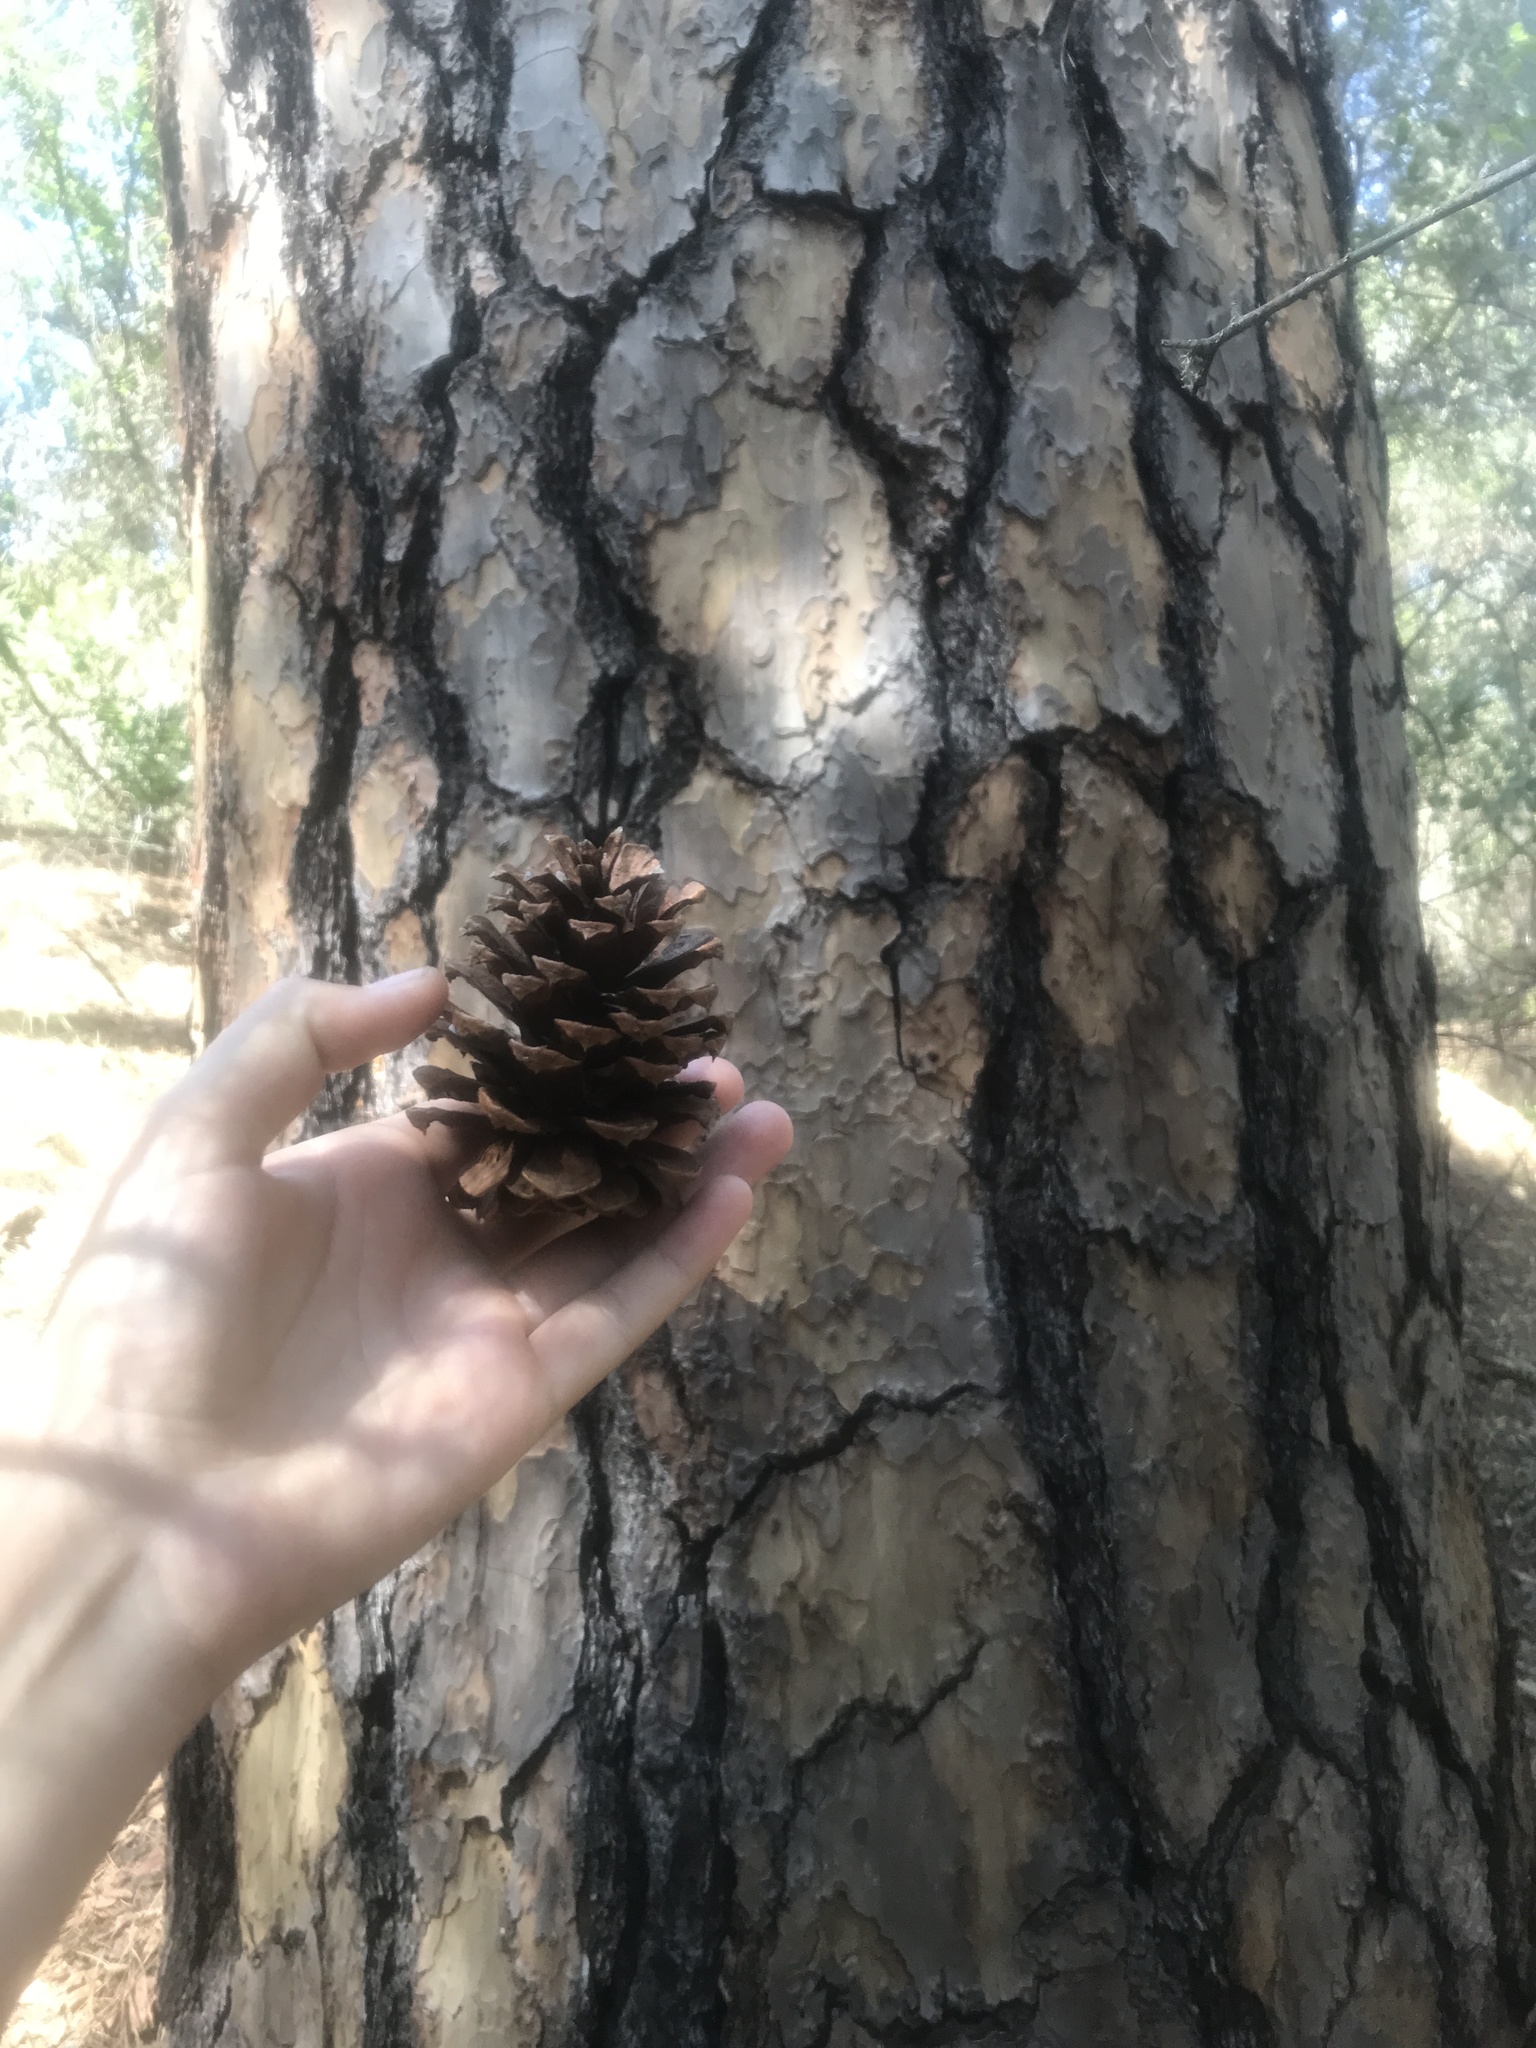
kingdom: Plantae
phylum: Tracheophyta
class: Pinopsida
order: Pinales
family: Pinaceae
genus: Pinus
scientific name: Pinus ponderosa
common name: Western yellow-pine
